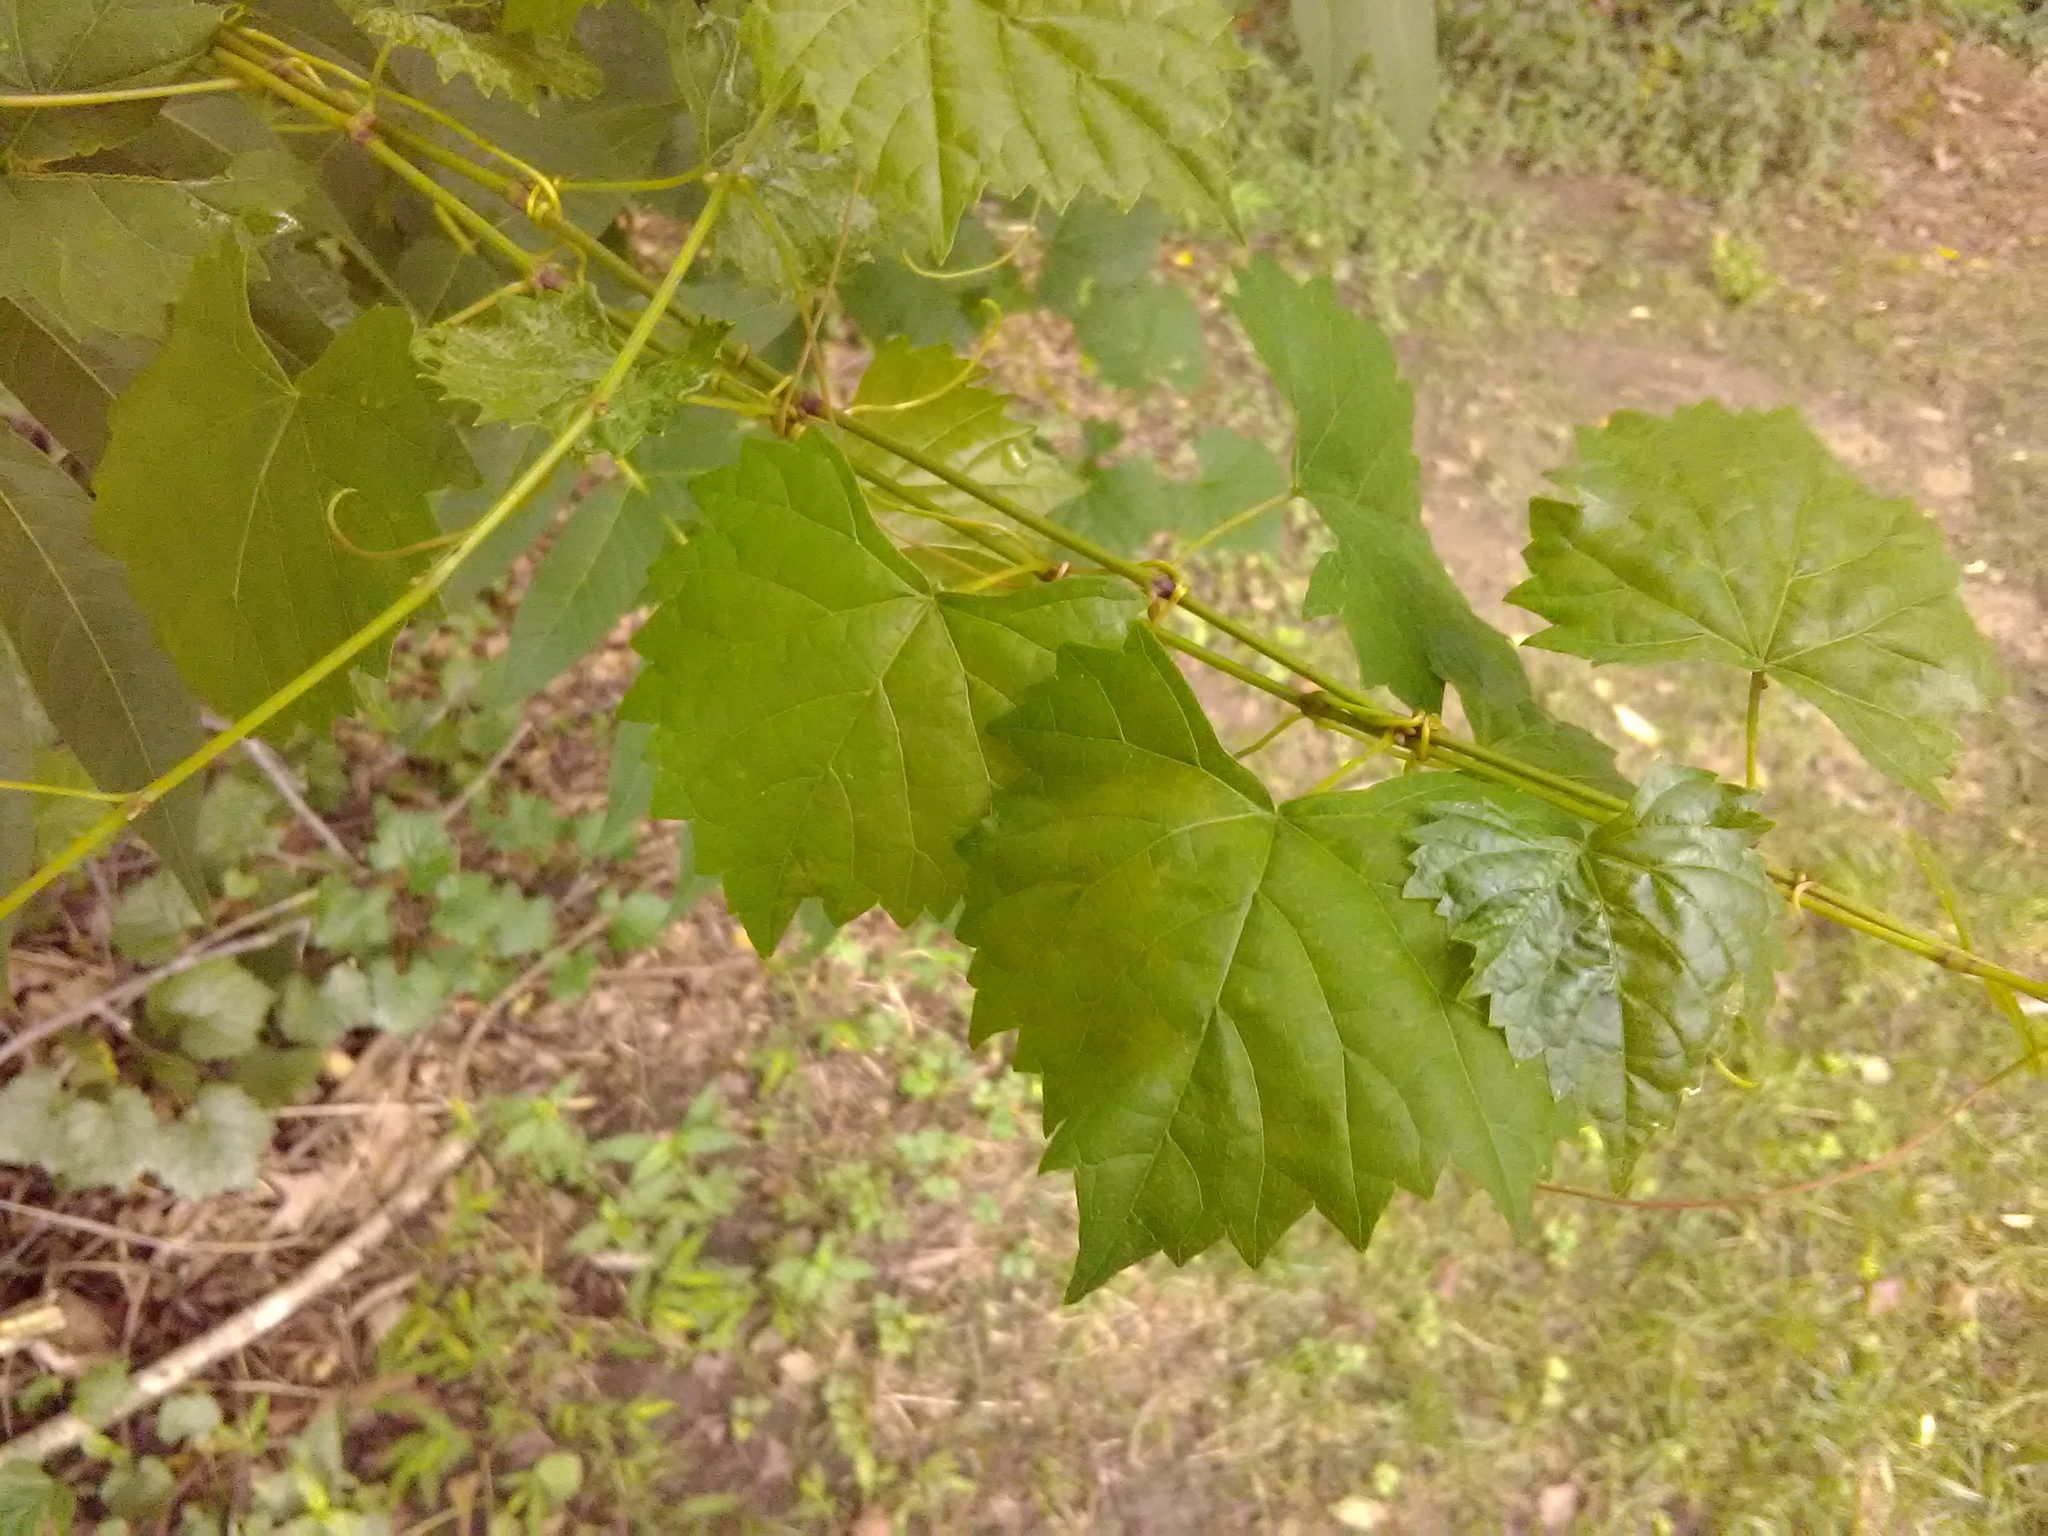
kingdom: Plantae
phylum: Tracheophyta
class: Magnoliopsida
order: Vitales
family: Vitaceae
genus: Vitis
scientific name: Vitis rotundifolia
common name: Muscadine grape
